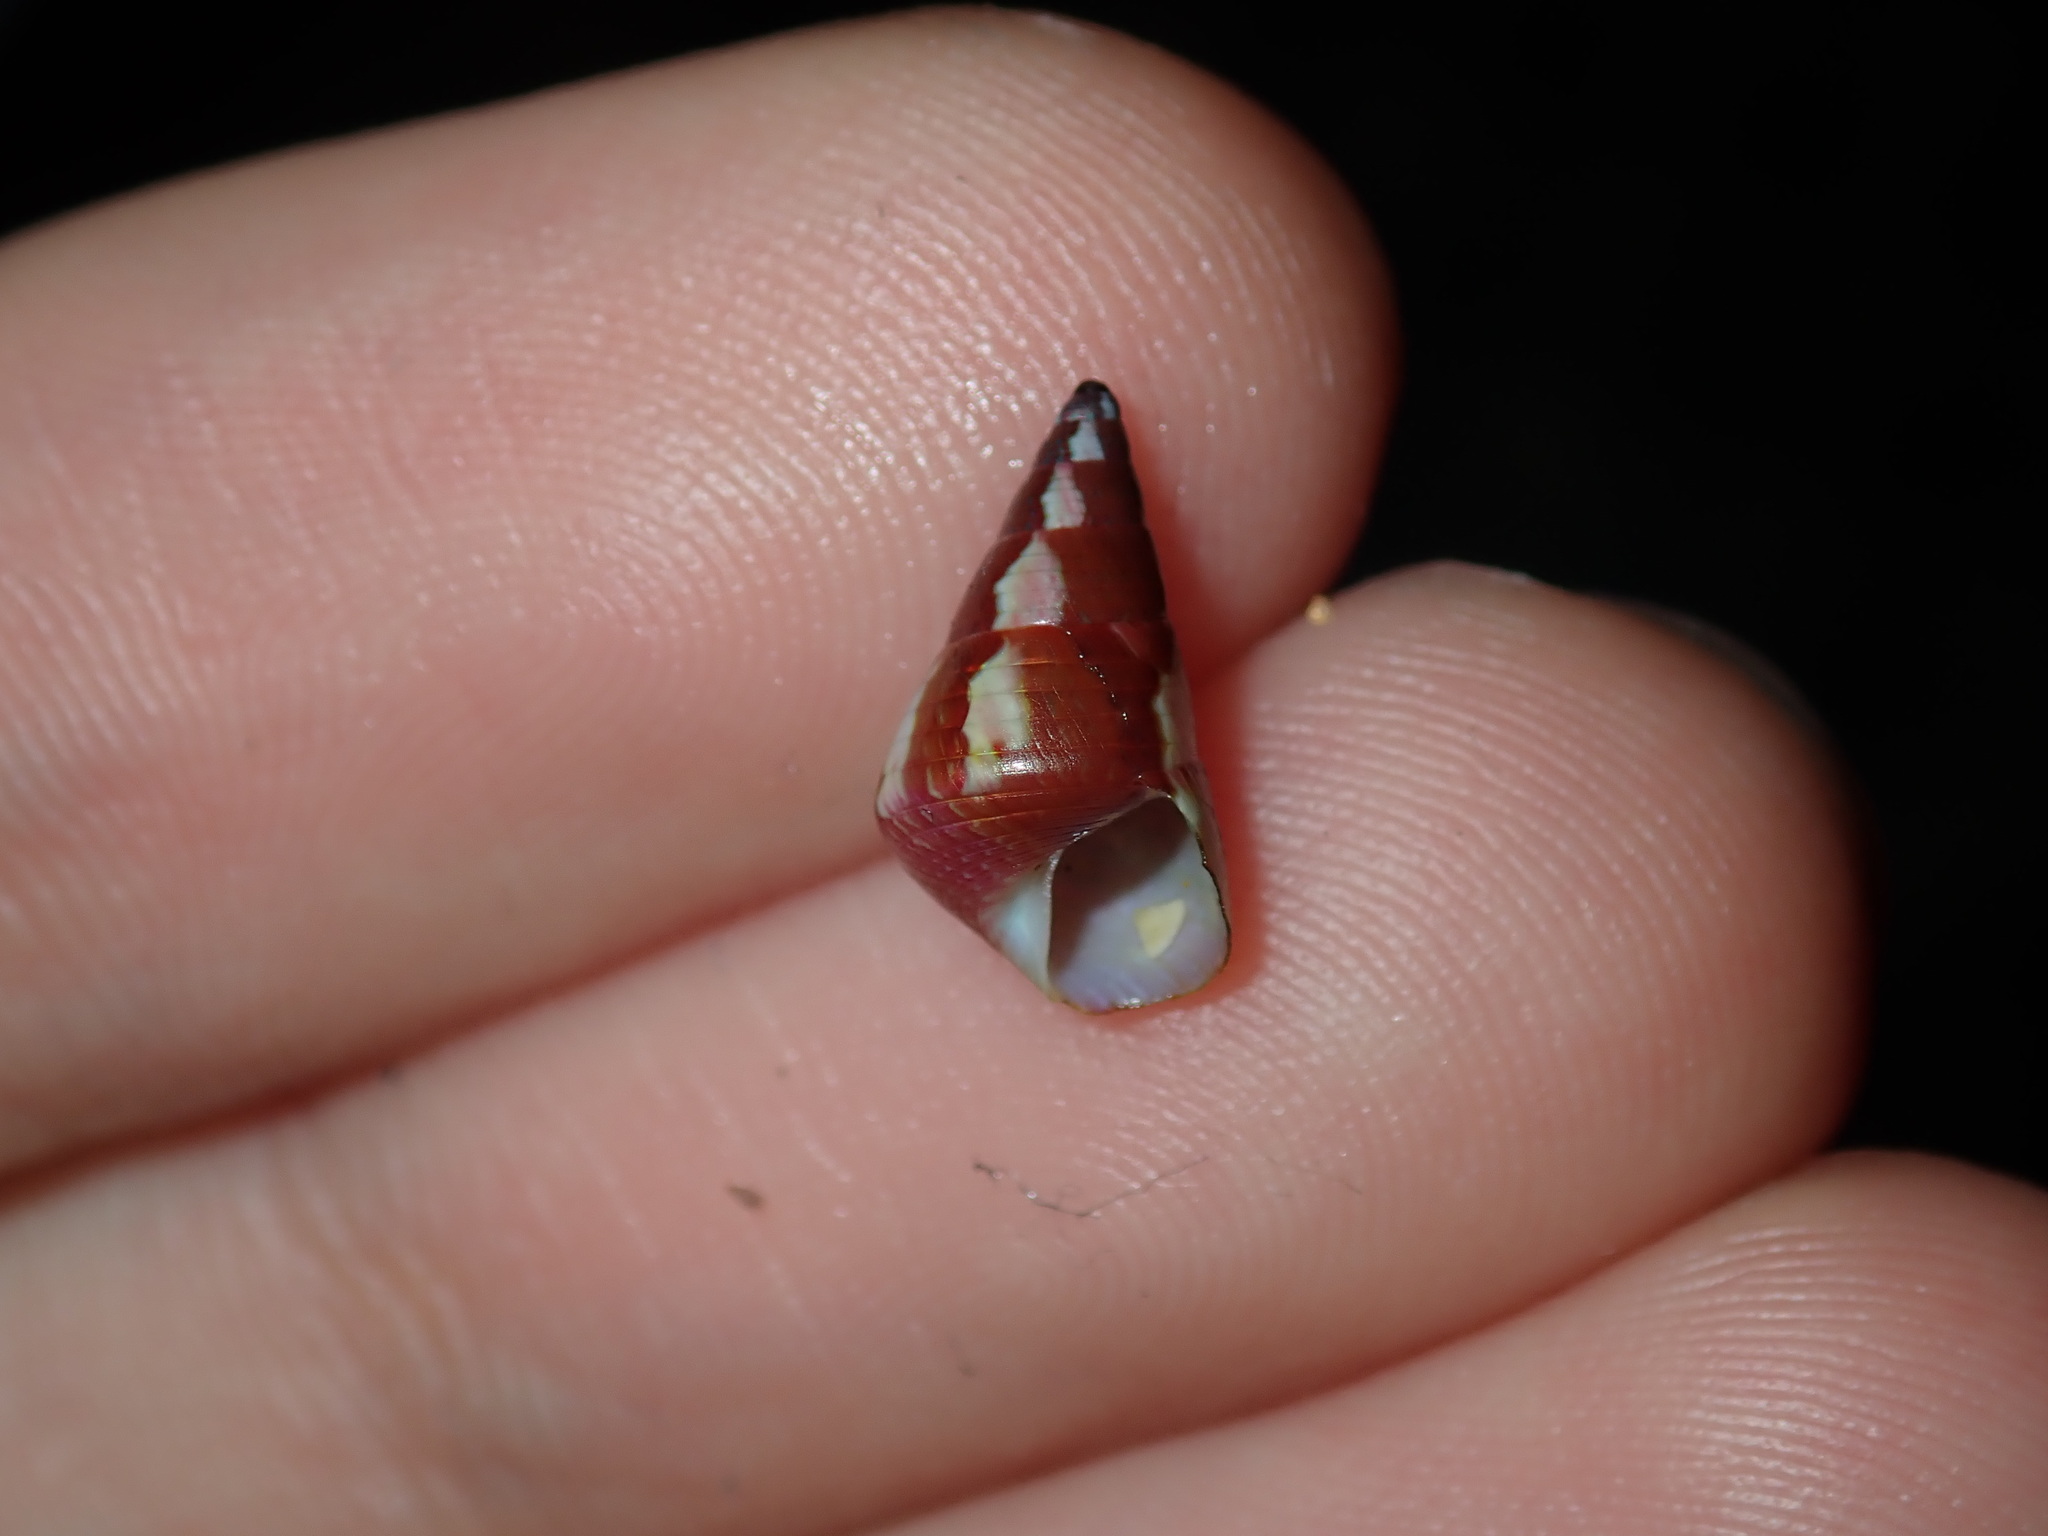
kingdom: Animalia
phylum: Mollusca
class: Gastropoda
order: Trochida
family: Trochidae
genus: Phasianotrochus
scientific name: Phasianotrochus eximius
